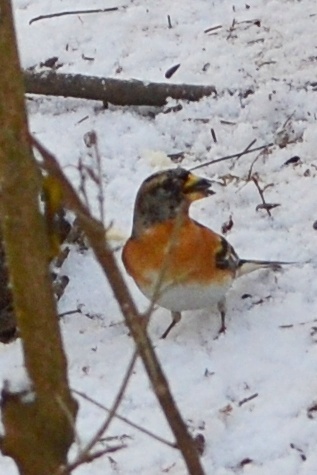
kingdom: Animalia
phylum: Chordata
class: Aves
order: Passeriformes
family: Fringillidae
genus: Fringilla
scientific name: Fringilla montifringilla
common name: Brambling
